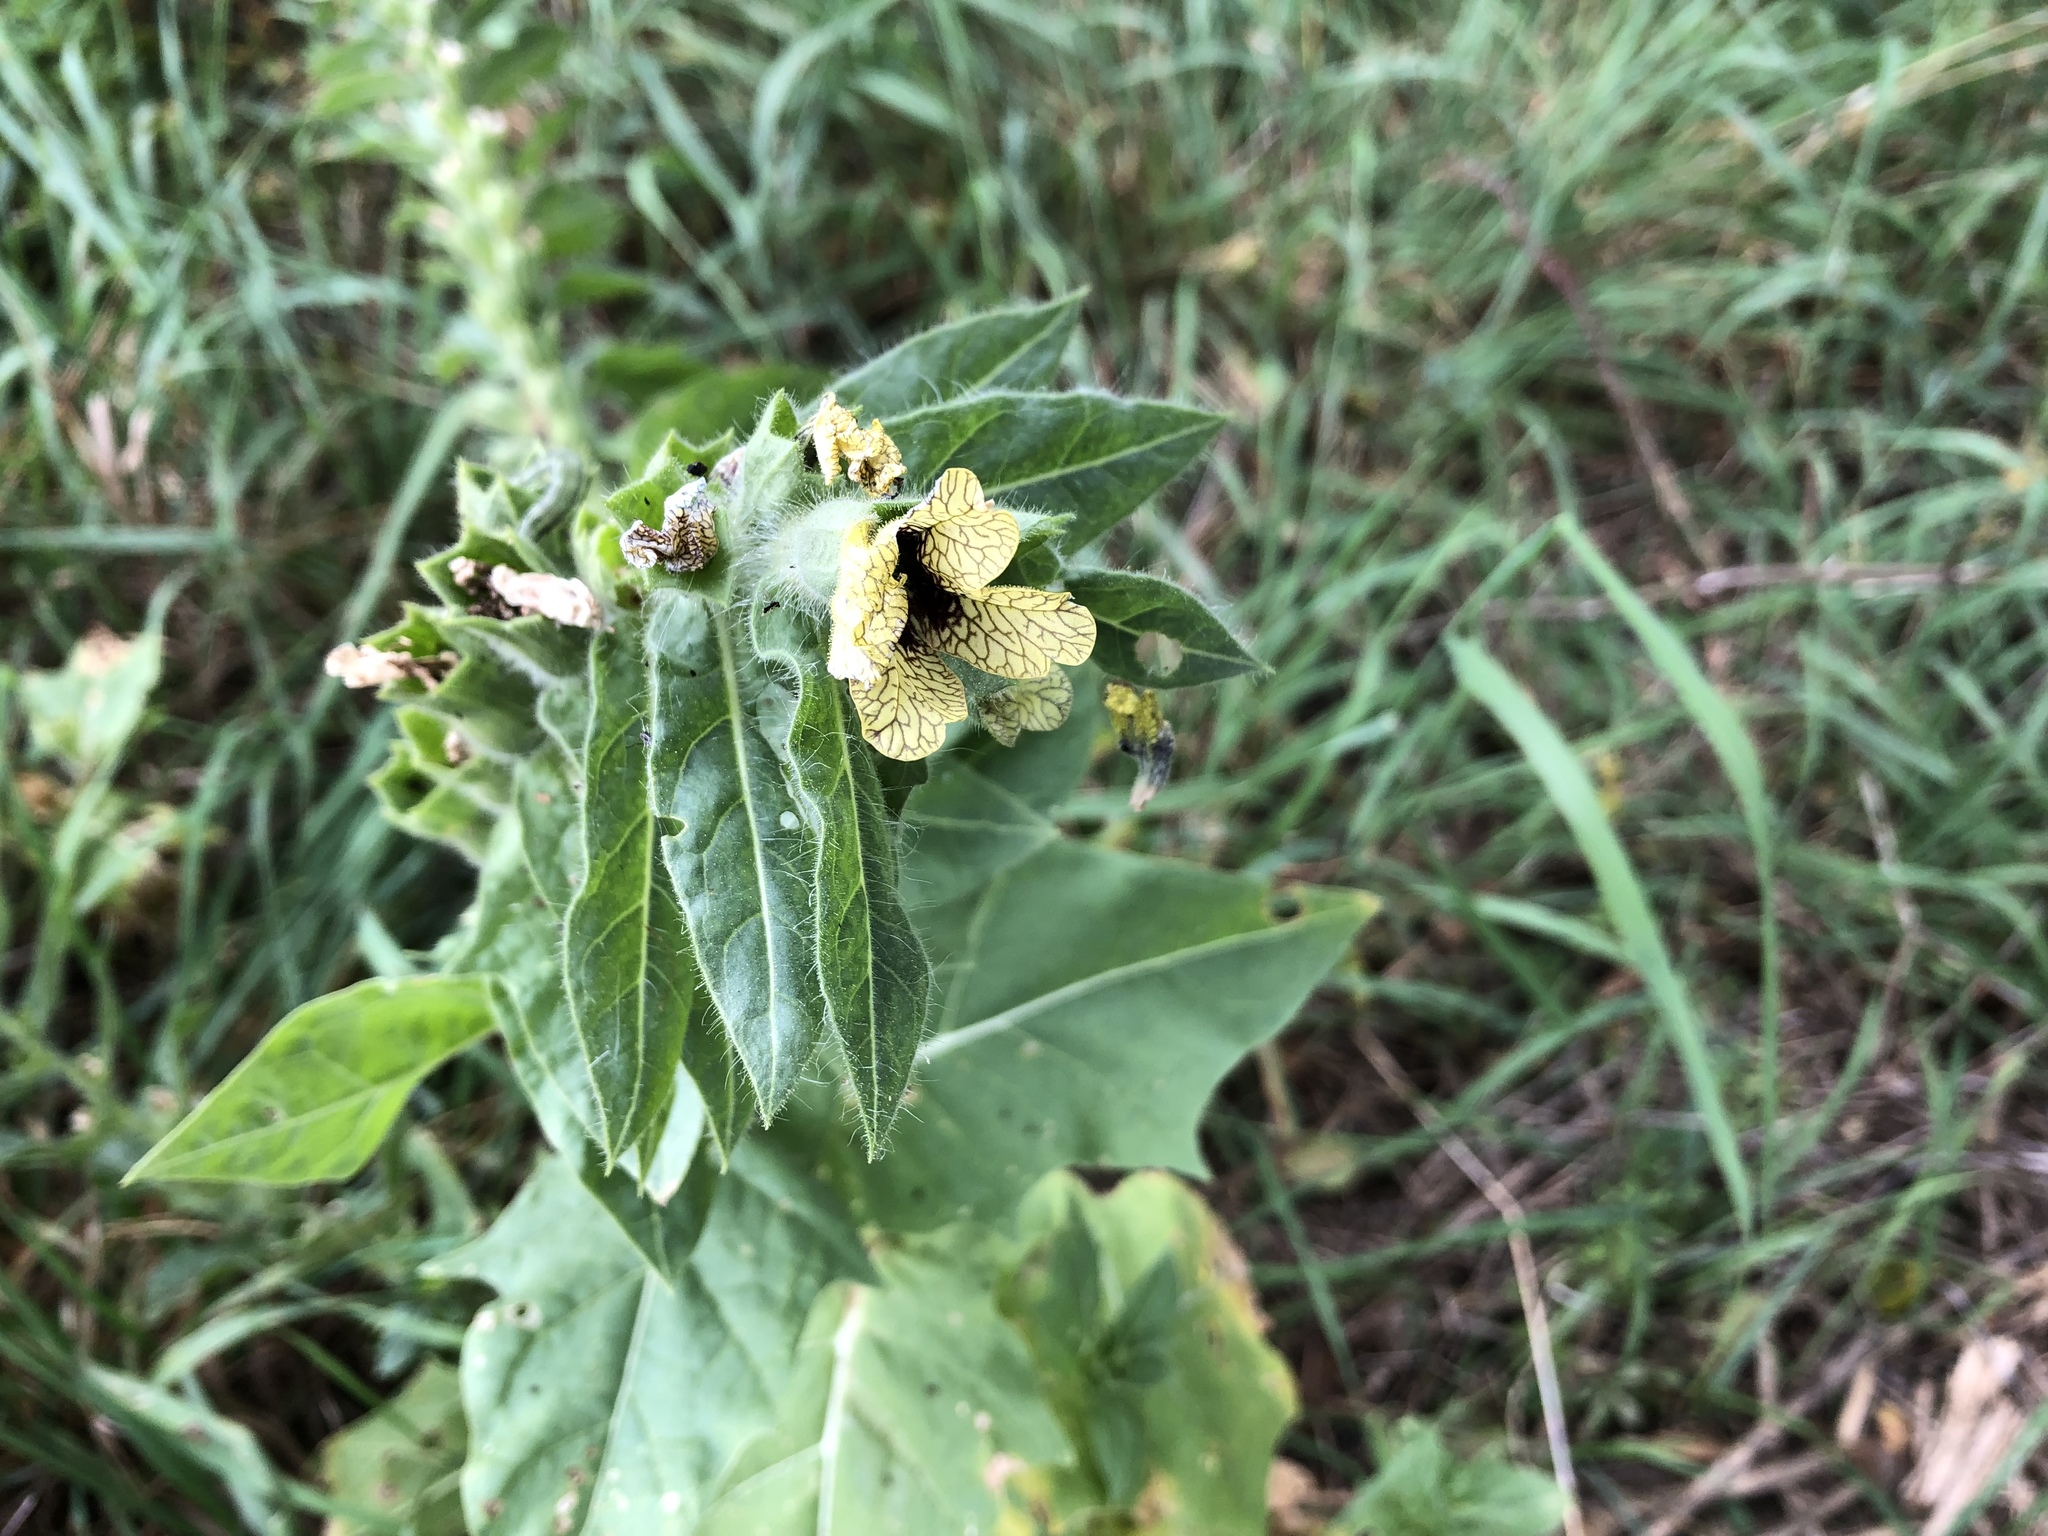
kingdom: Plantae
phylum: Tracheophyta
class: Magnoliopsida
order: Solanales
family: Solanaceae
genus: Hyoscyamus
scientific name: Hyoscyamus niger
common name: Henbane
